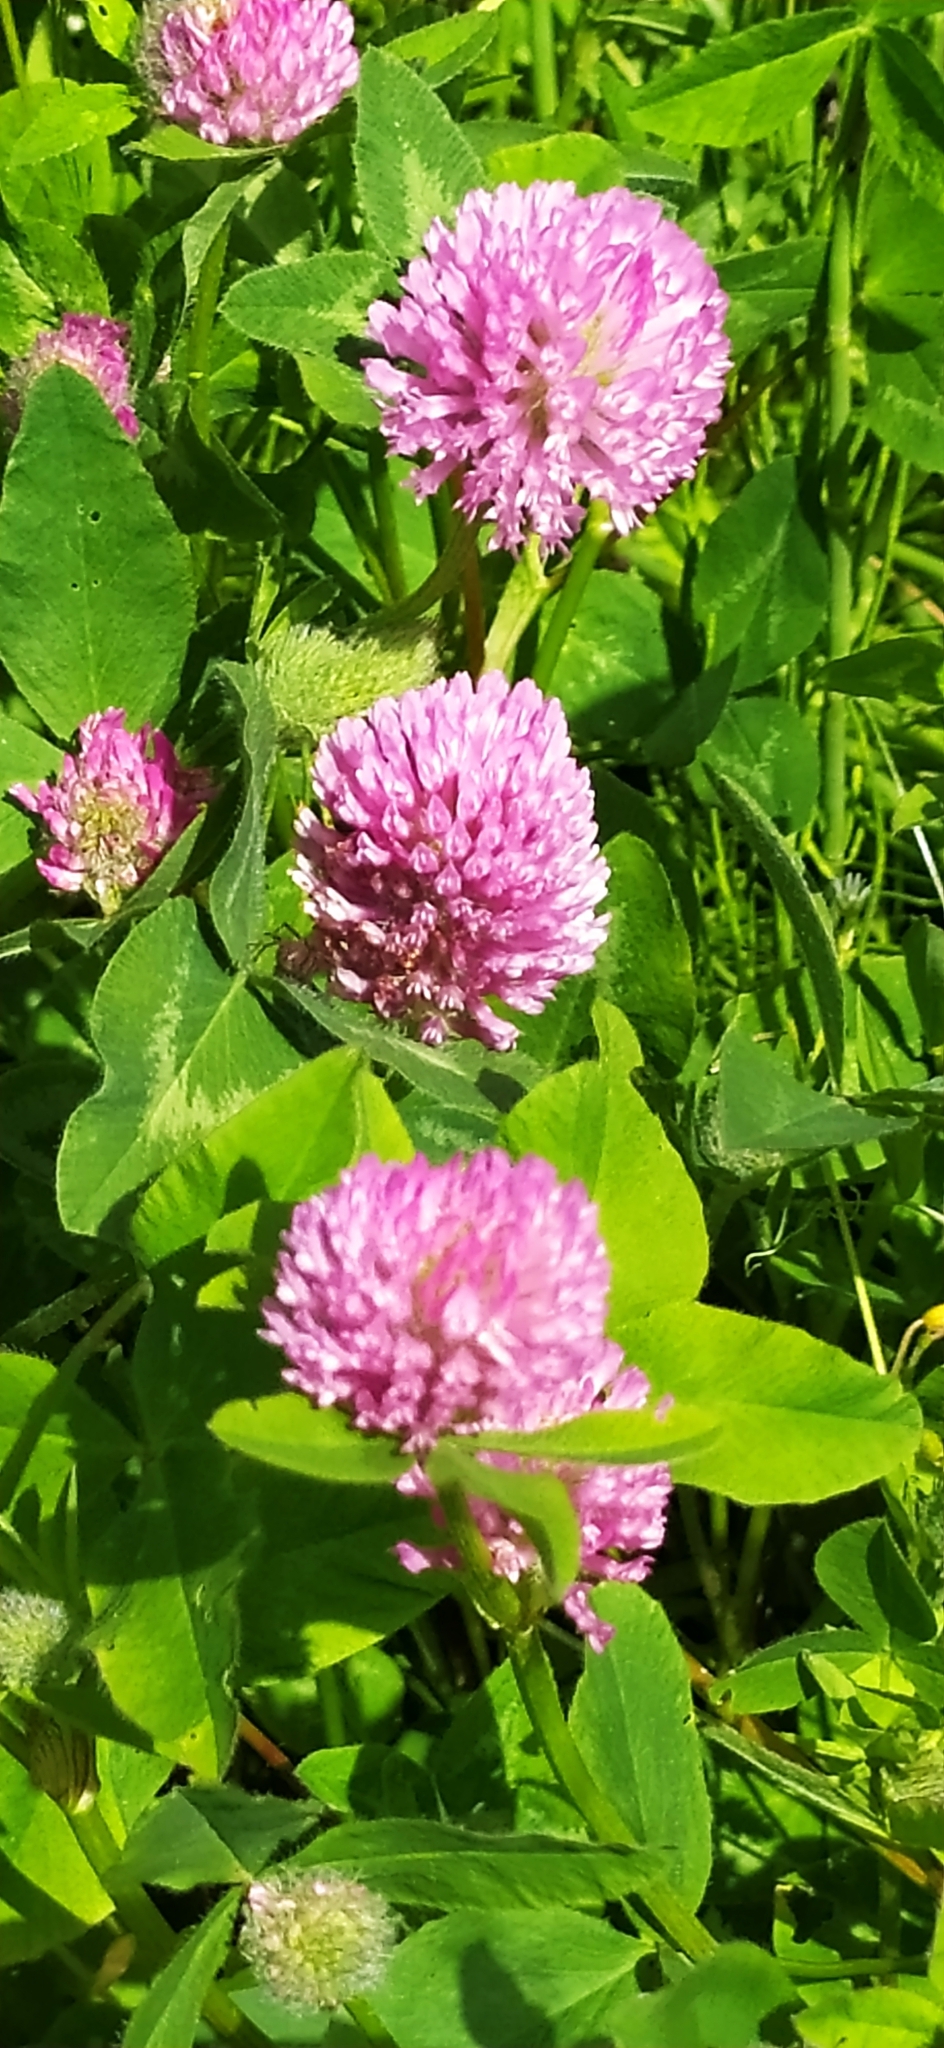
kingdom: Plantae
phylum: Tracheophyta
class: Magnoliopsida
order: Fabales
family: Fabaceae
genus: Trifolium
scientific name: Trifolium pratense
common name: Red clover
